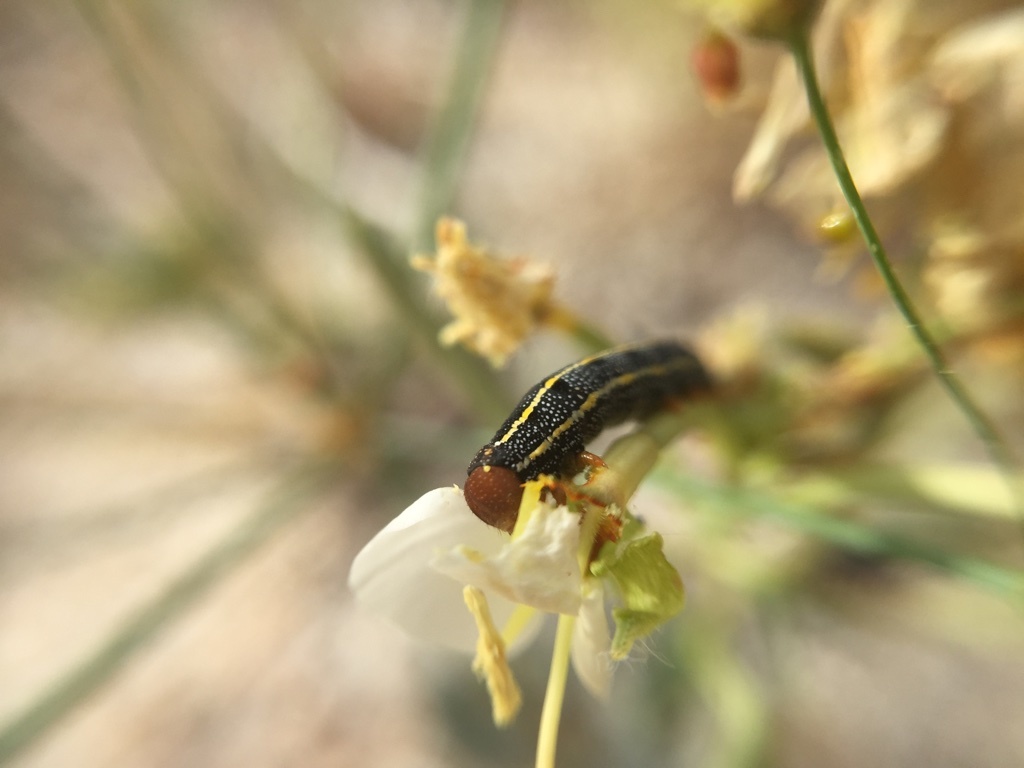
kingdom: Animalia
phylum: Arthropoda
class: Insecta
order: Lepidoptera
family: Sphingidae
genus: Hyles
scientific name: Hyles lineata
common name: White-lined sphinx
